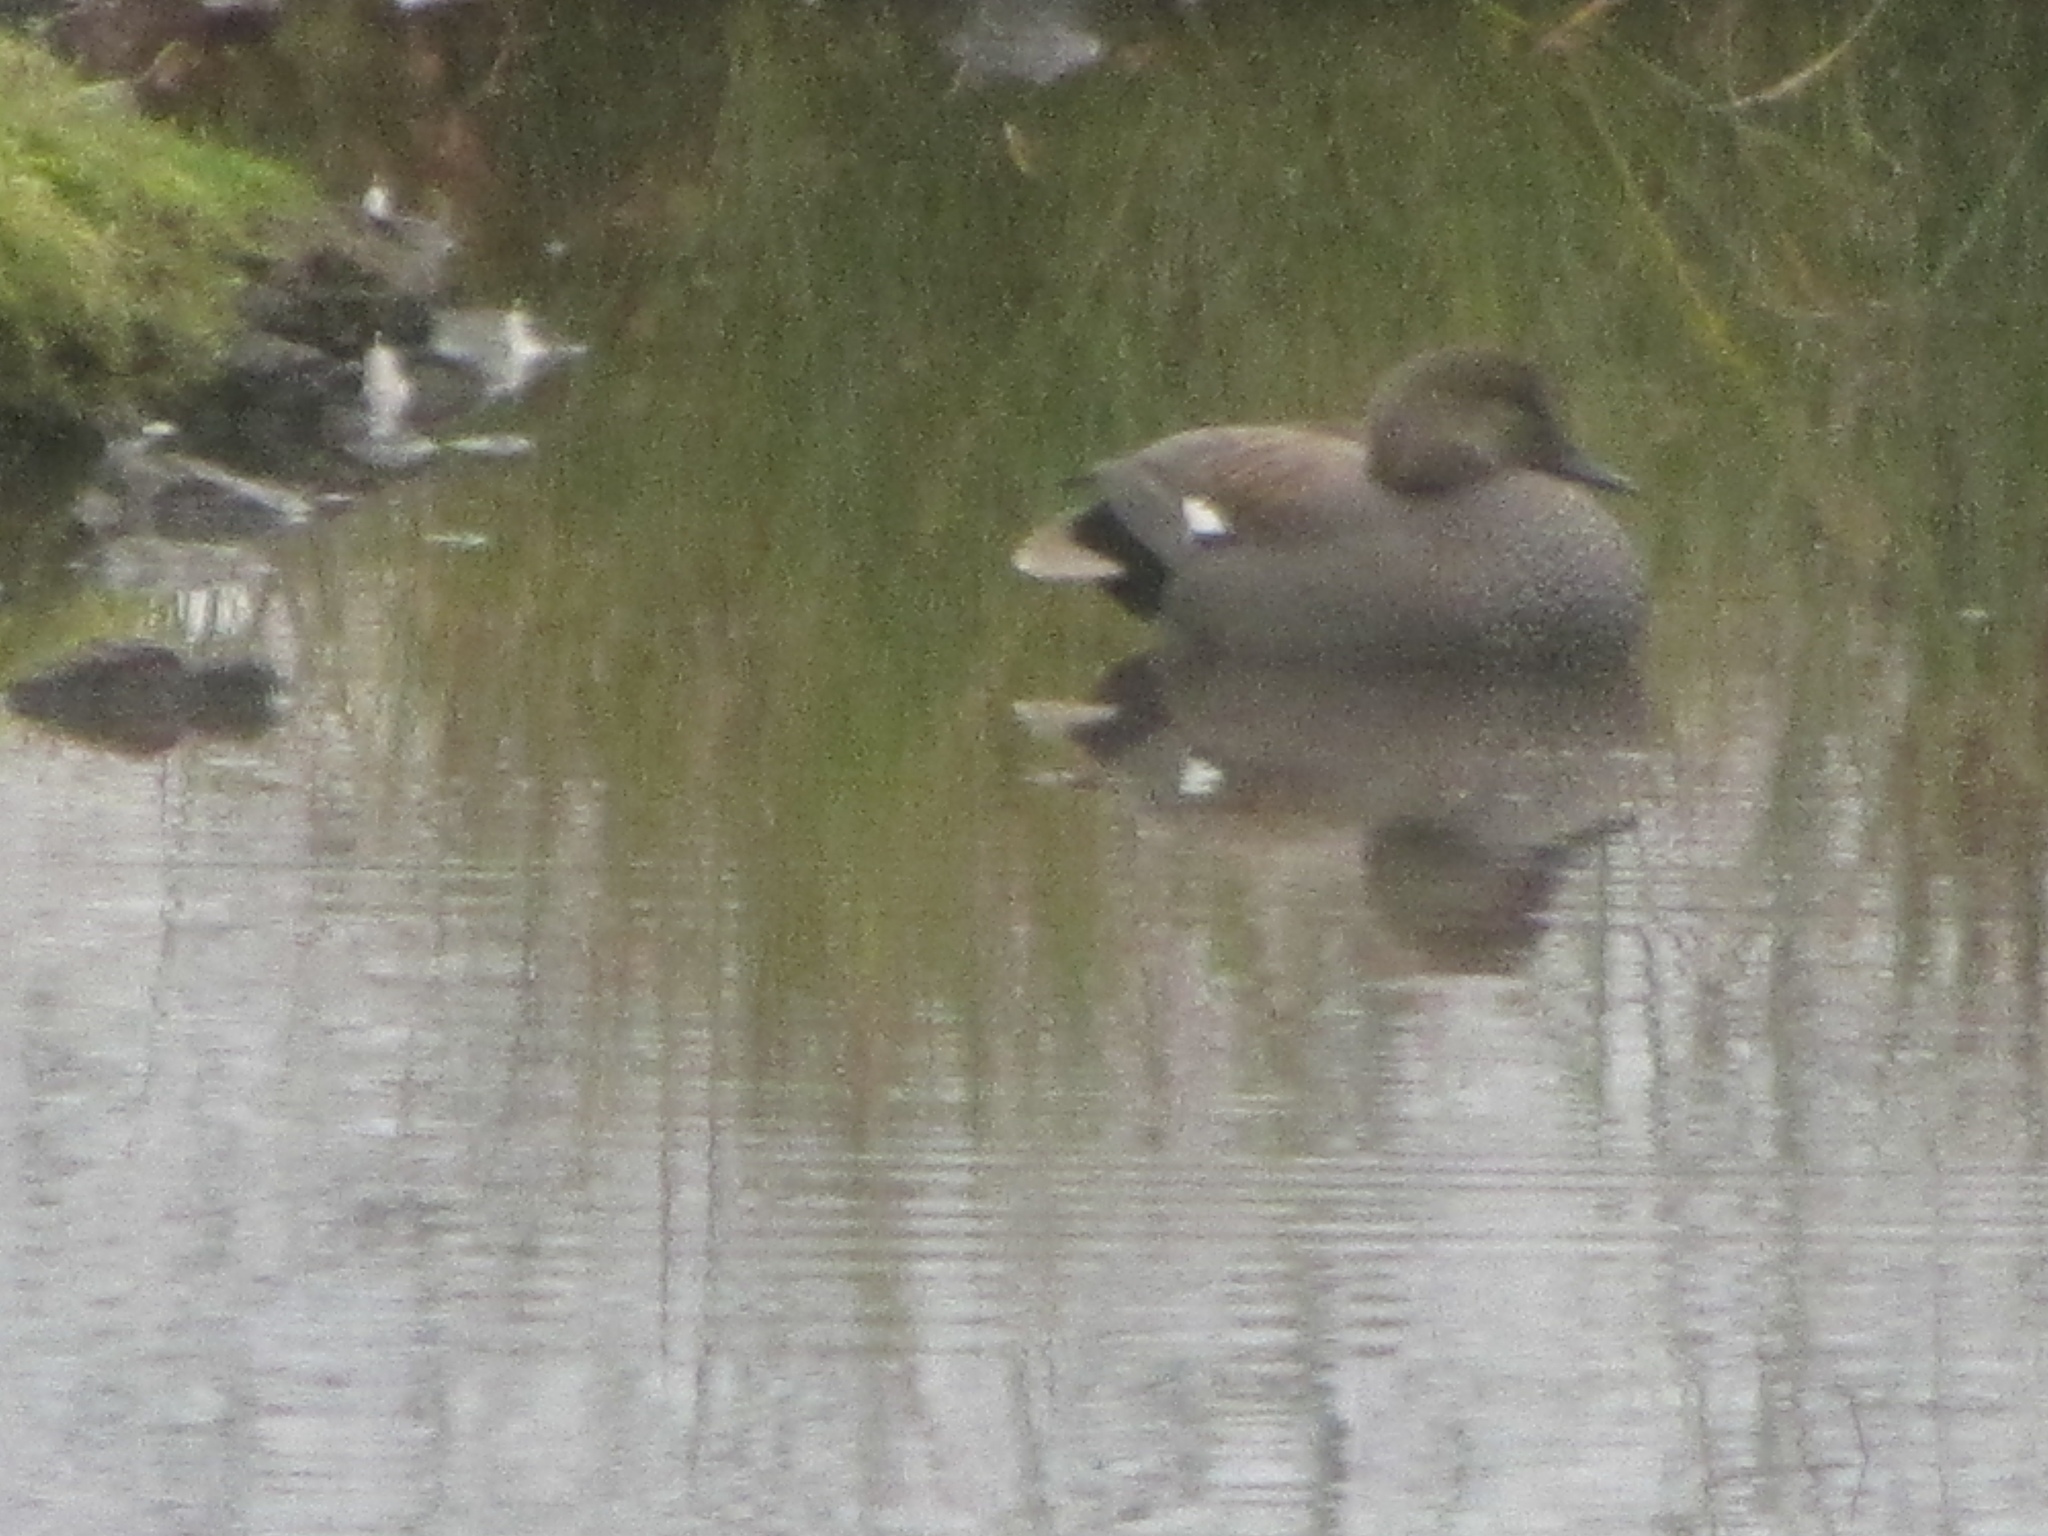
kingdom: Animalia
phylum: Chordata
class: Aves
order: Anseriformes
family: Anatidae
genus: Mareca
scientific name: Mareca strepera
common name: Gadwall
